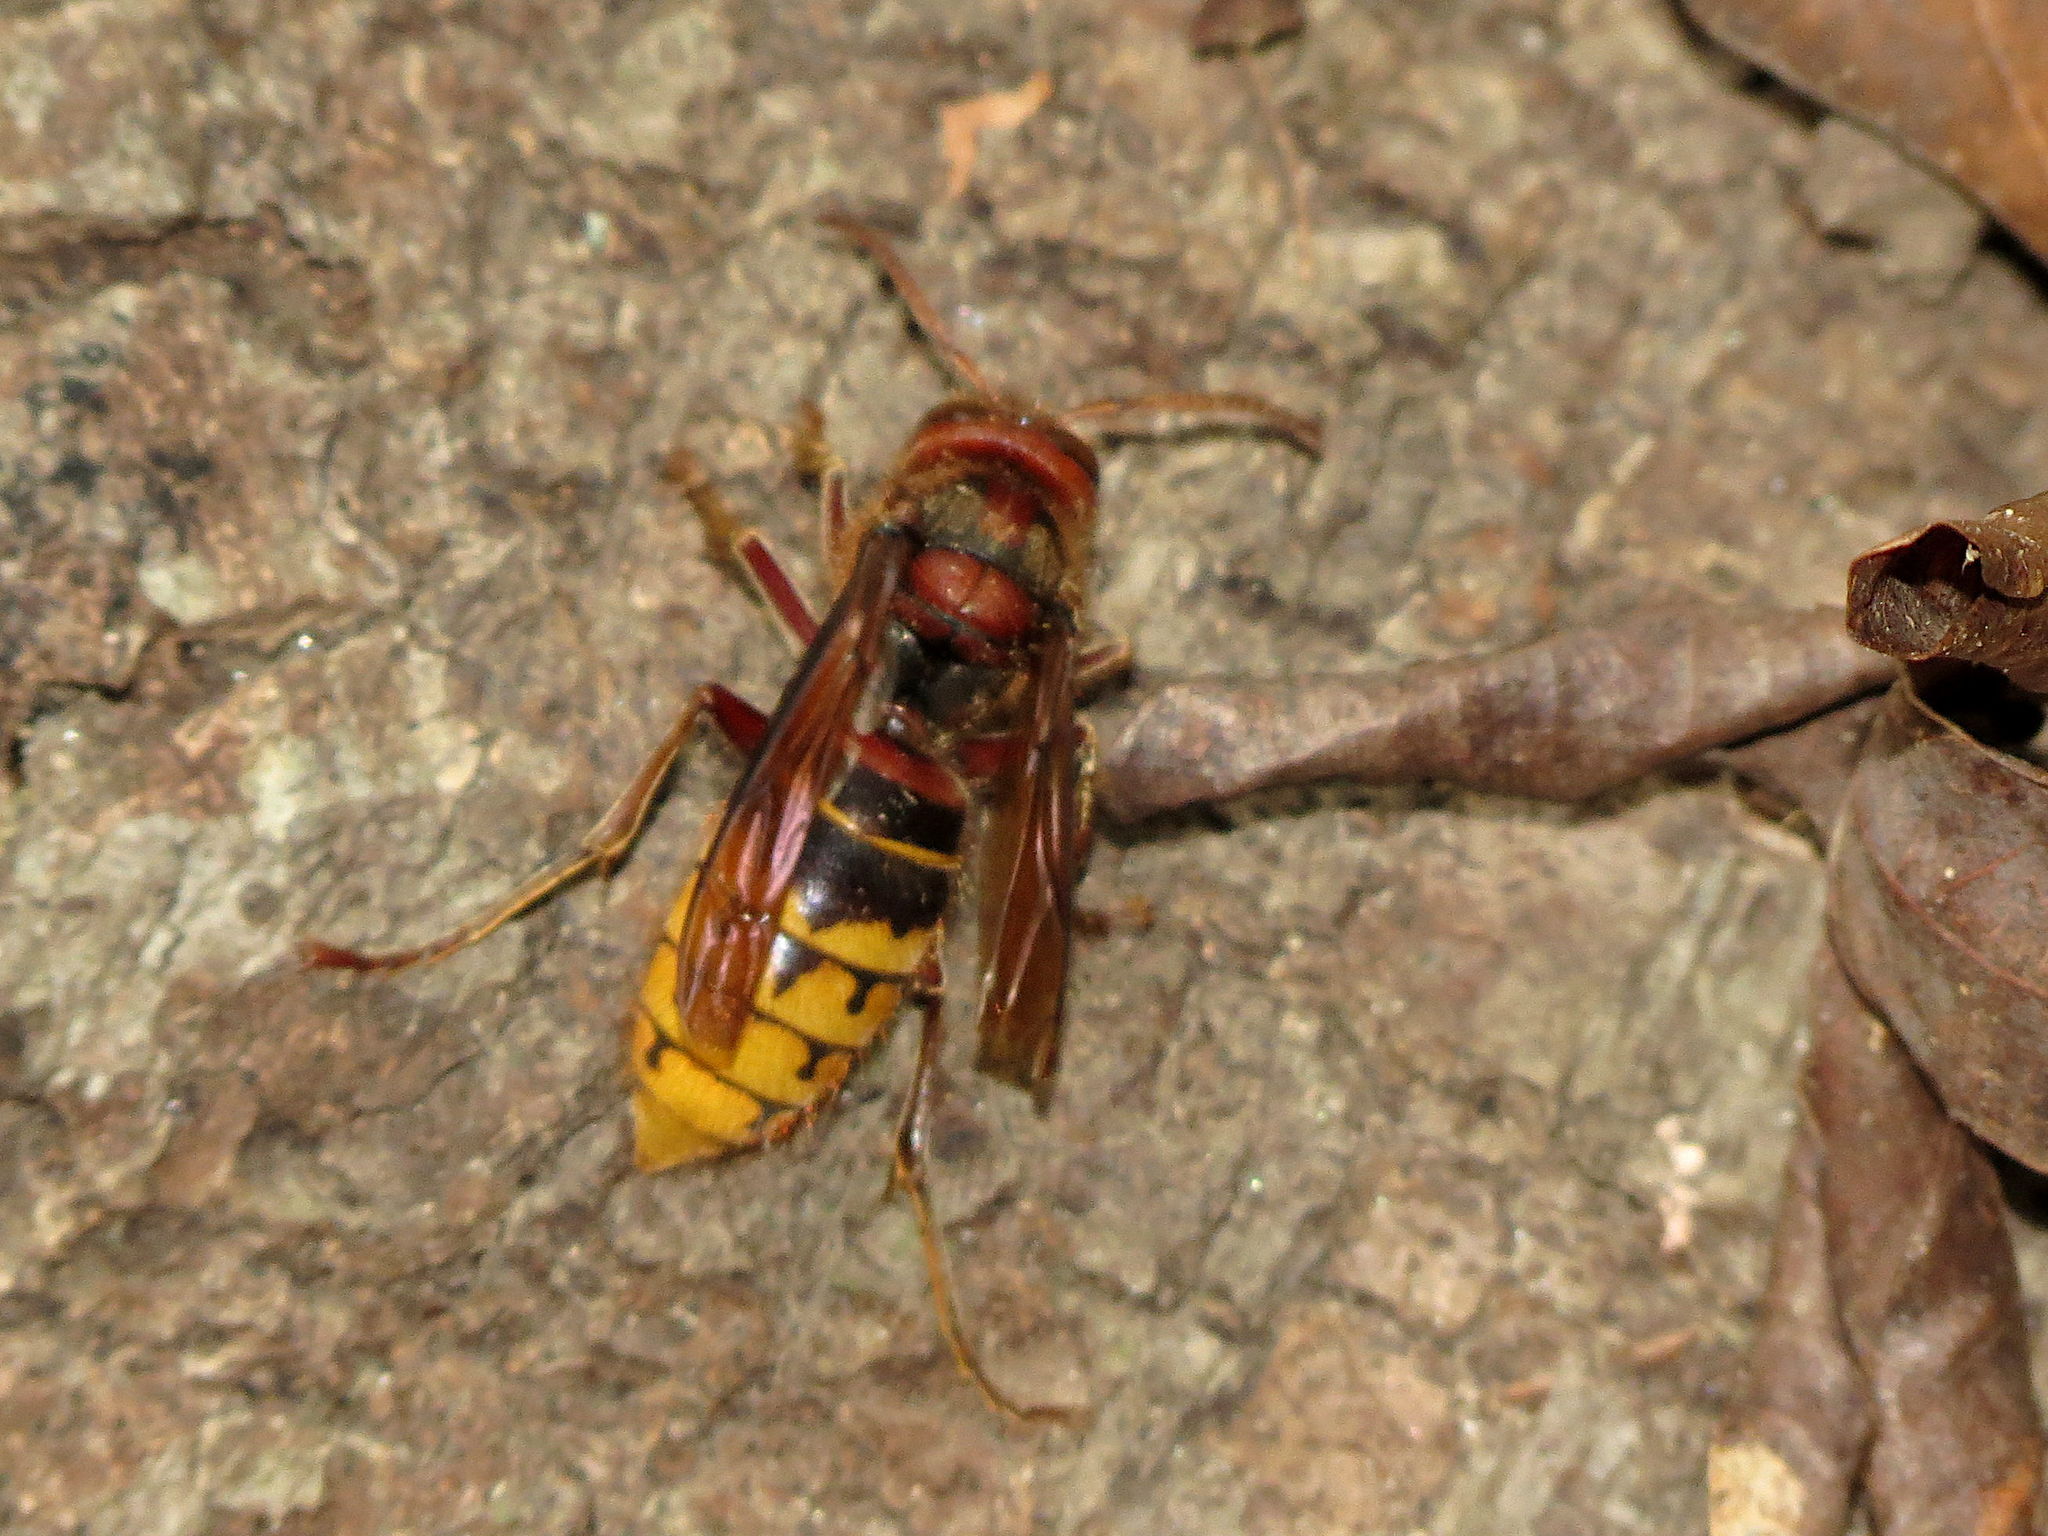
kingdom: Animalia
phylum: Arthropoda
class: Insecta
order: Hymenoptera
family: Vespidae
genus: Vespa
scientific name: Vespa crabro
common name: Hornet
